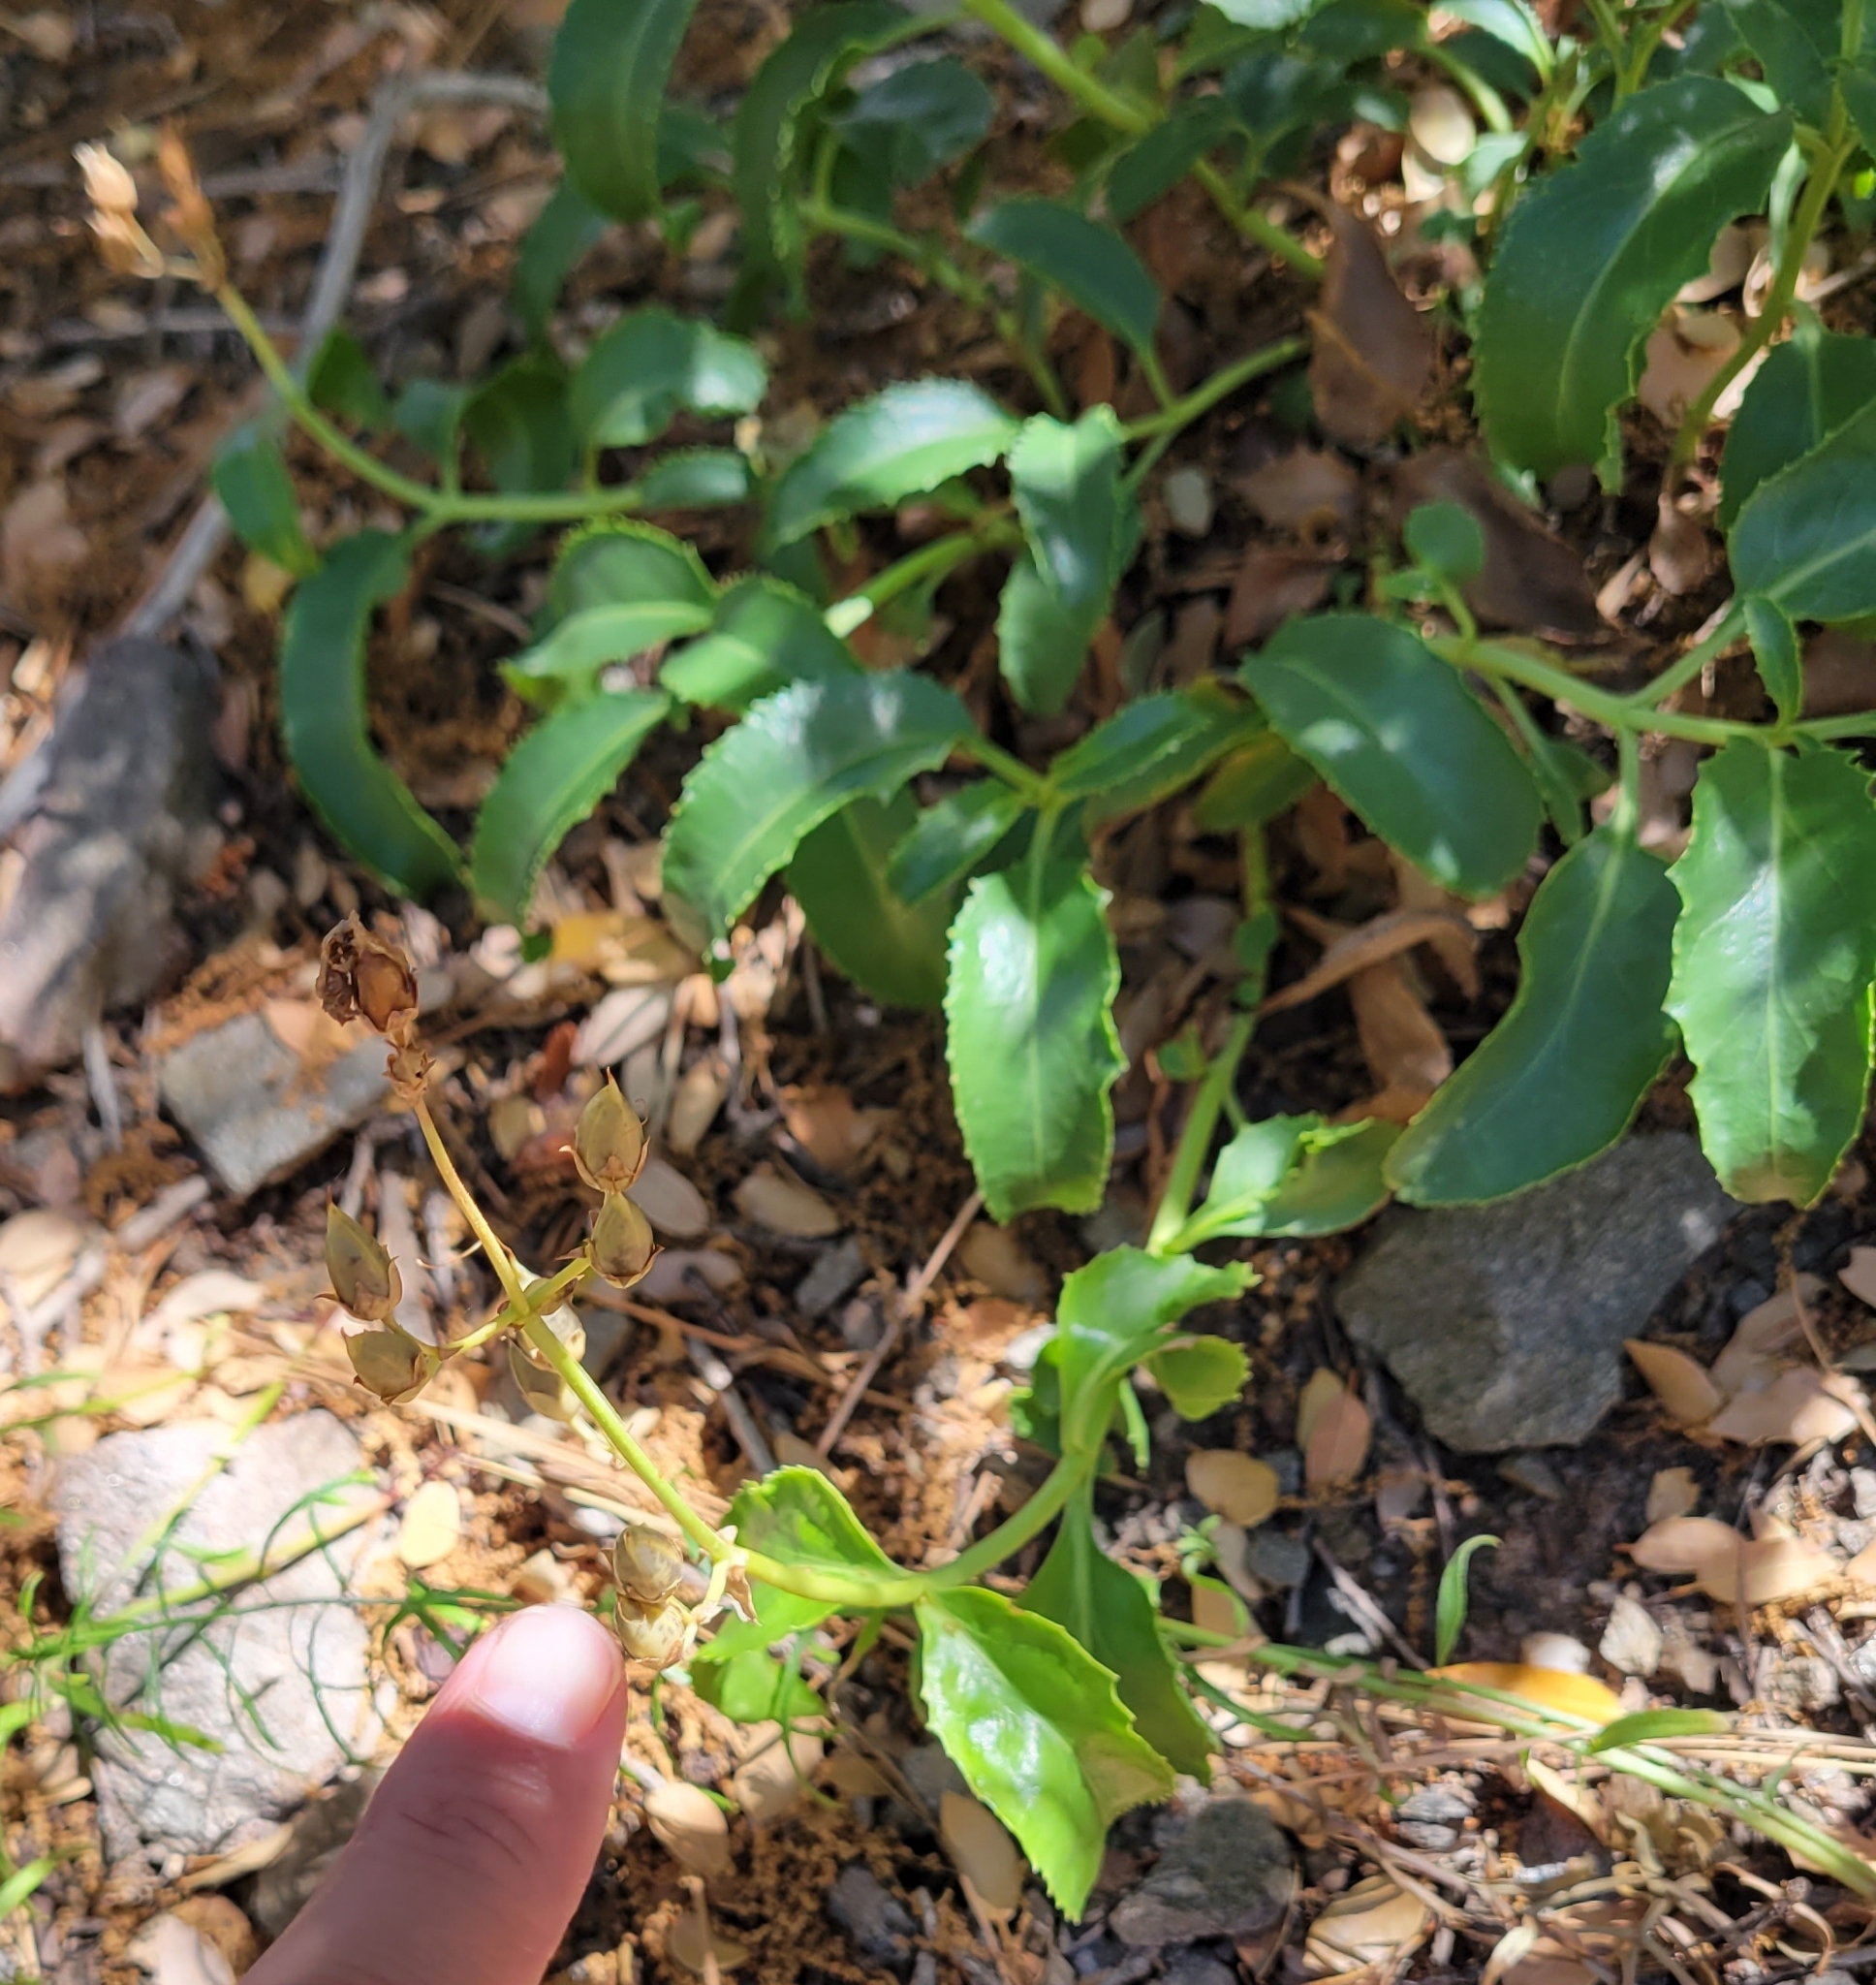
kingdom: Plantae
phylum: Tracheophyta
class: Magnoliopsida
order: Lamiales
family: Plantaginaceae
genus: Penstemon
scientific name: Penstemon grinnellii
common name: Grinnell's beardtongue
